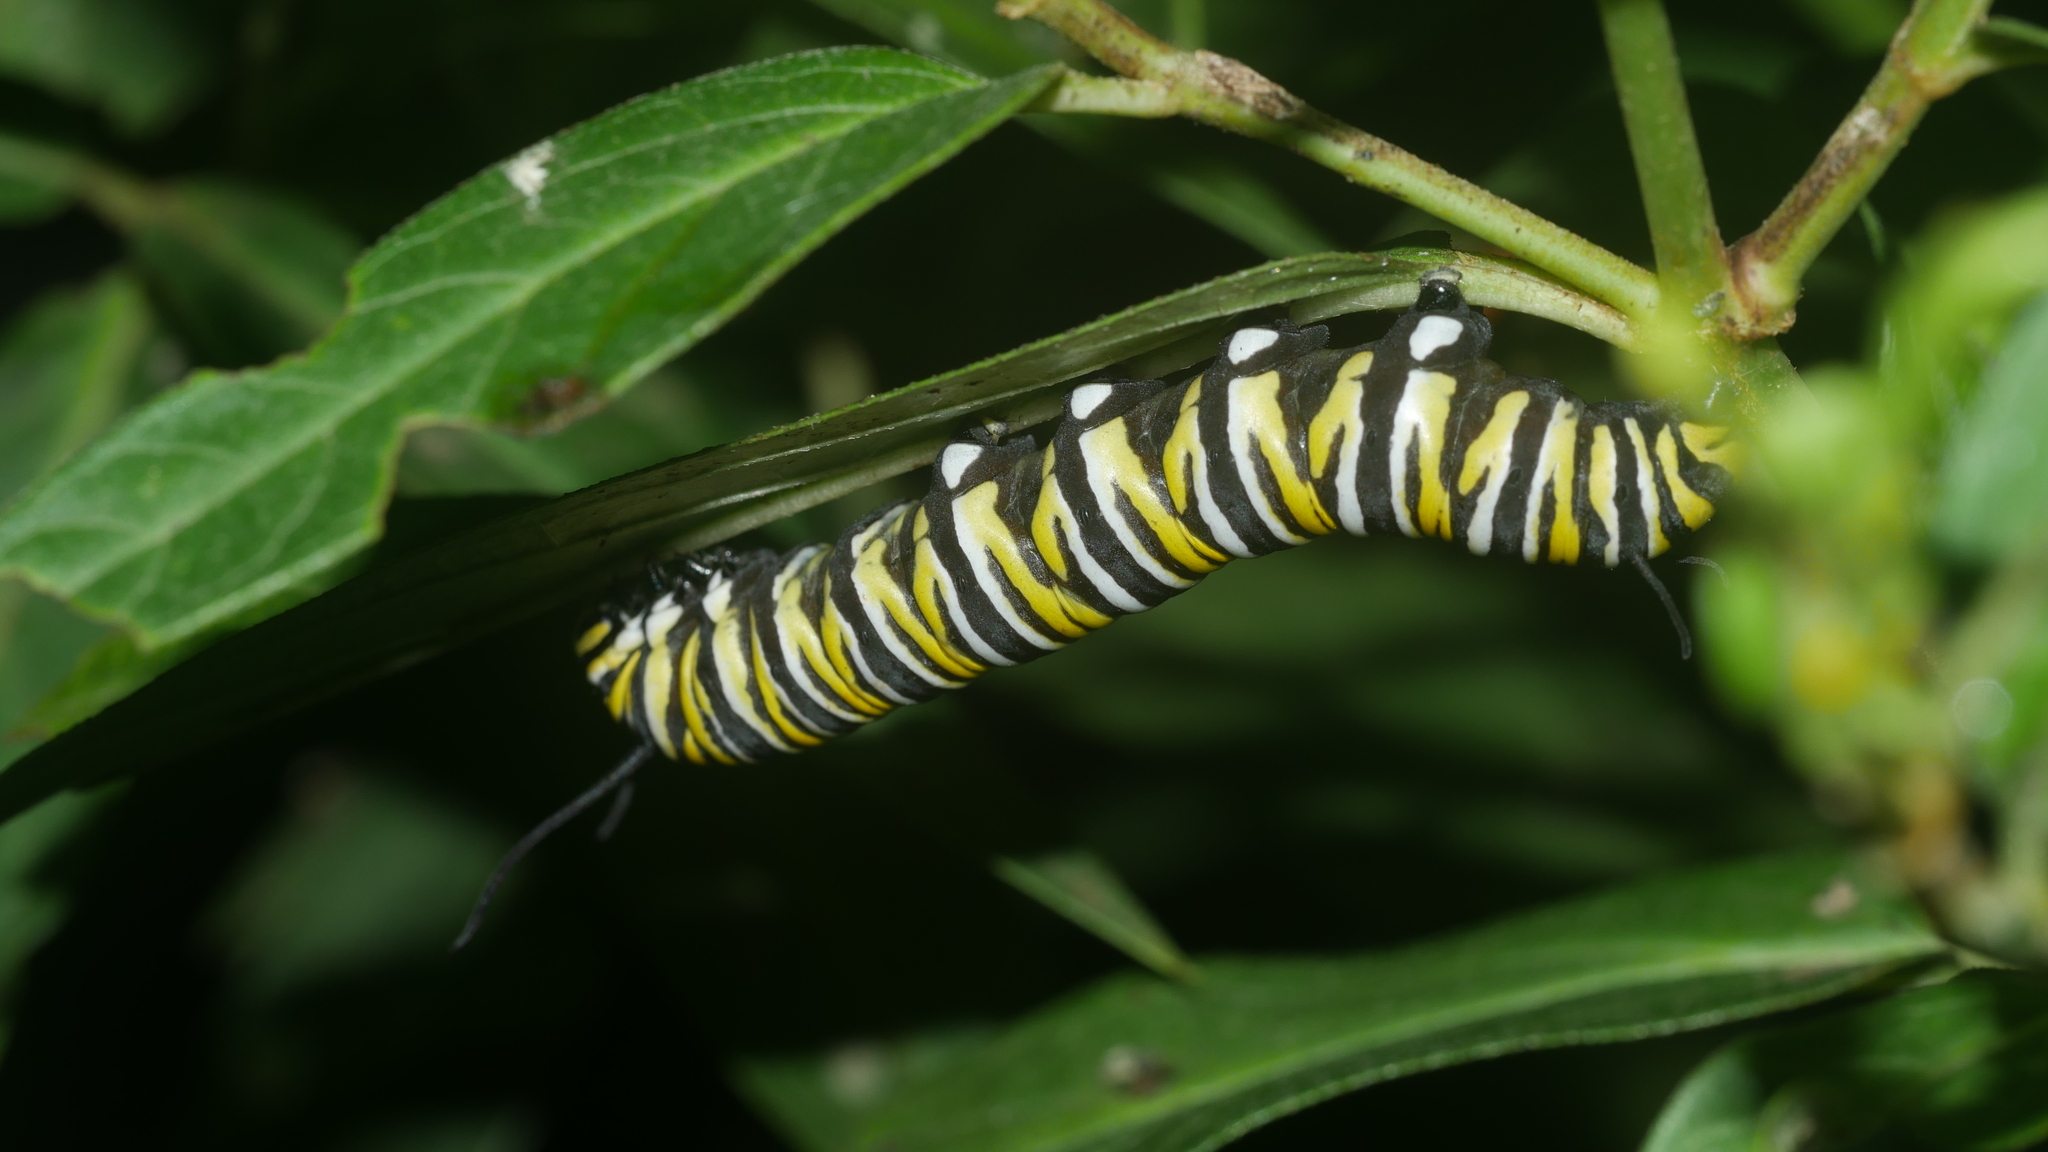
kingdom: Animalia
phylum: Arthropoda
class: Insecta
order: Lepidoptera
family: Nymphalidae
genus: Danaus
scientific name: Danaus plexippus
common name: Monarch
